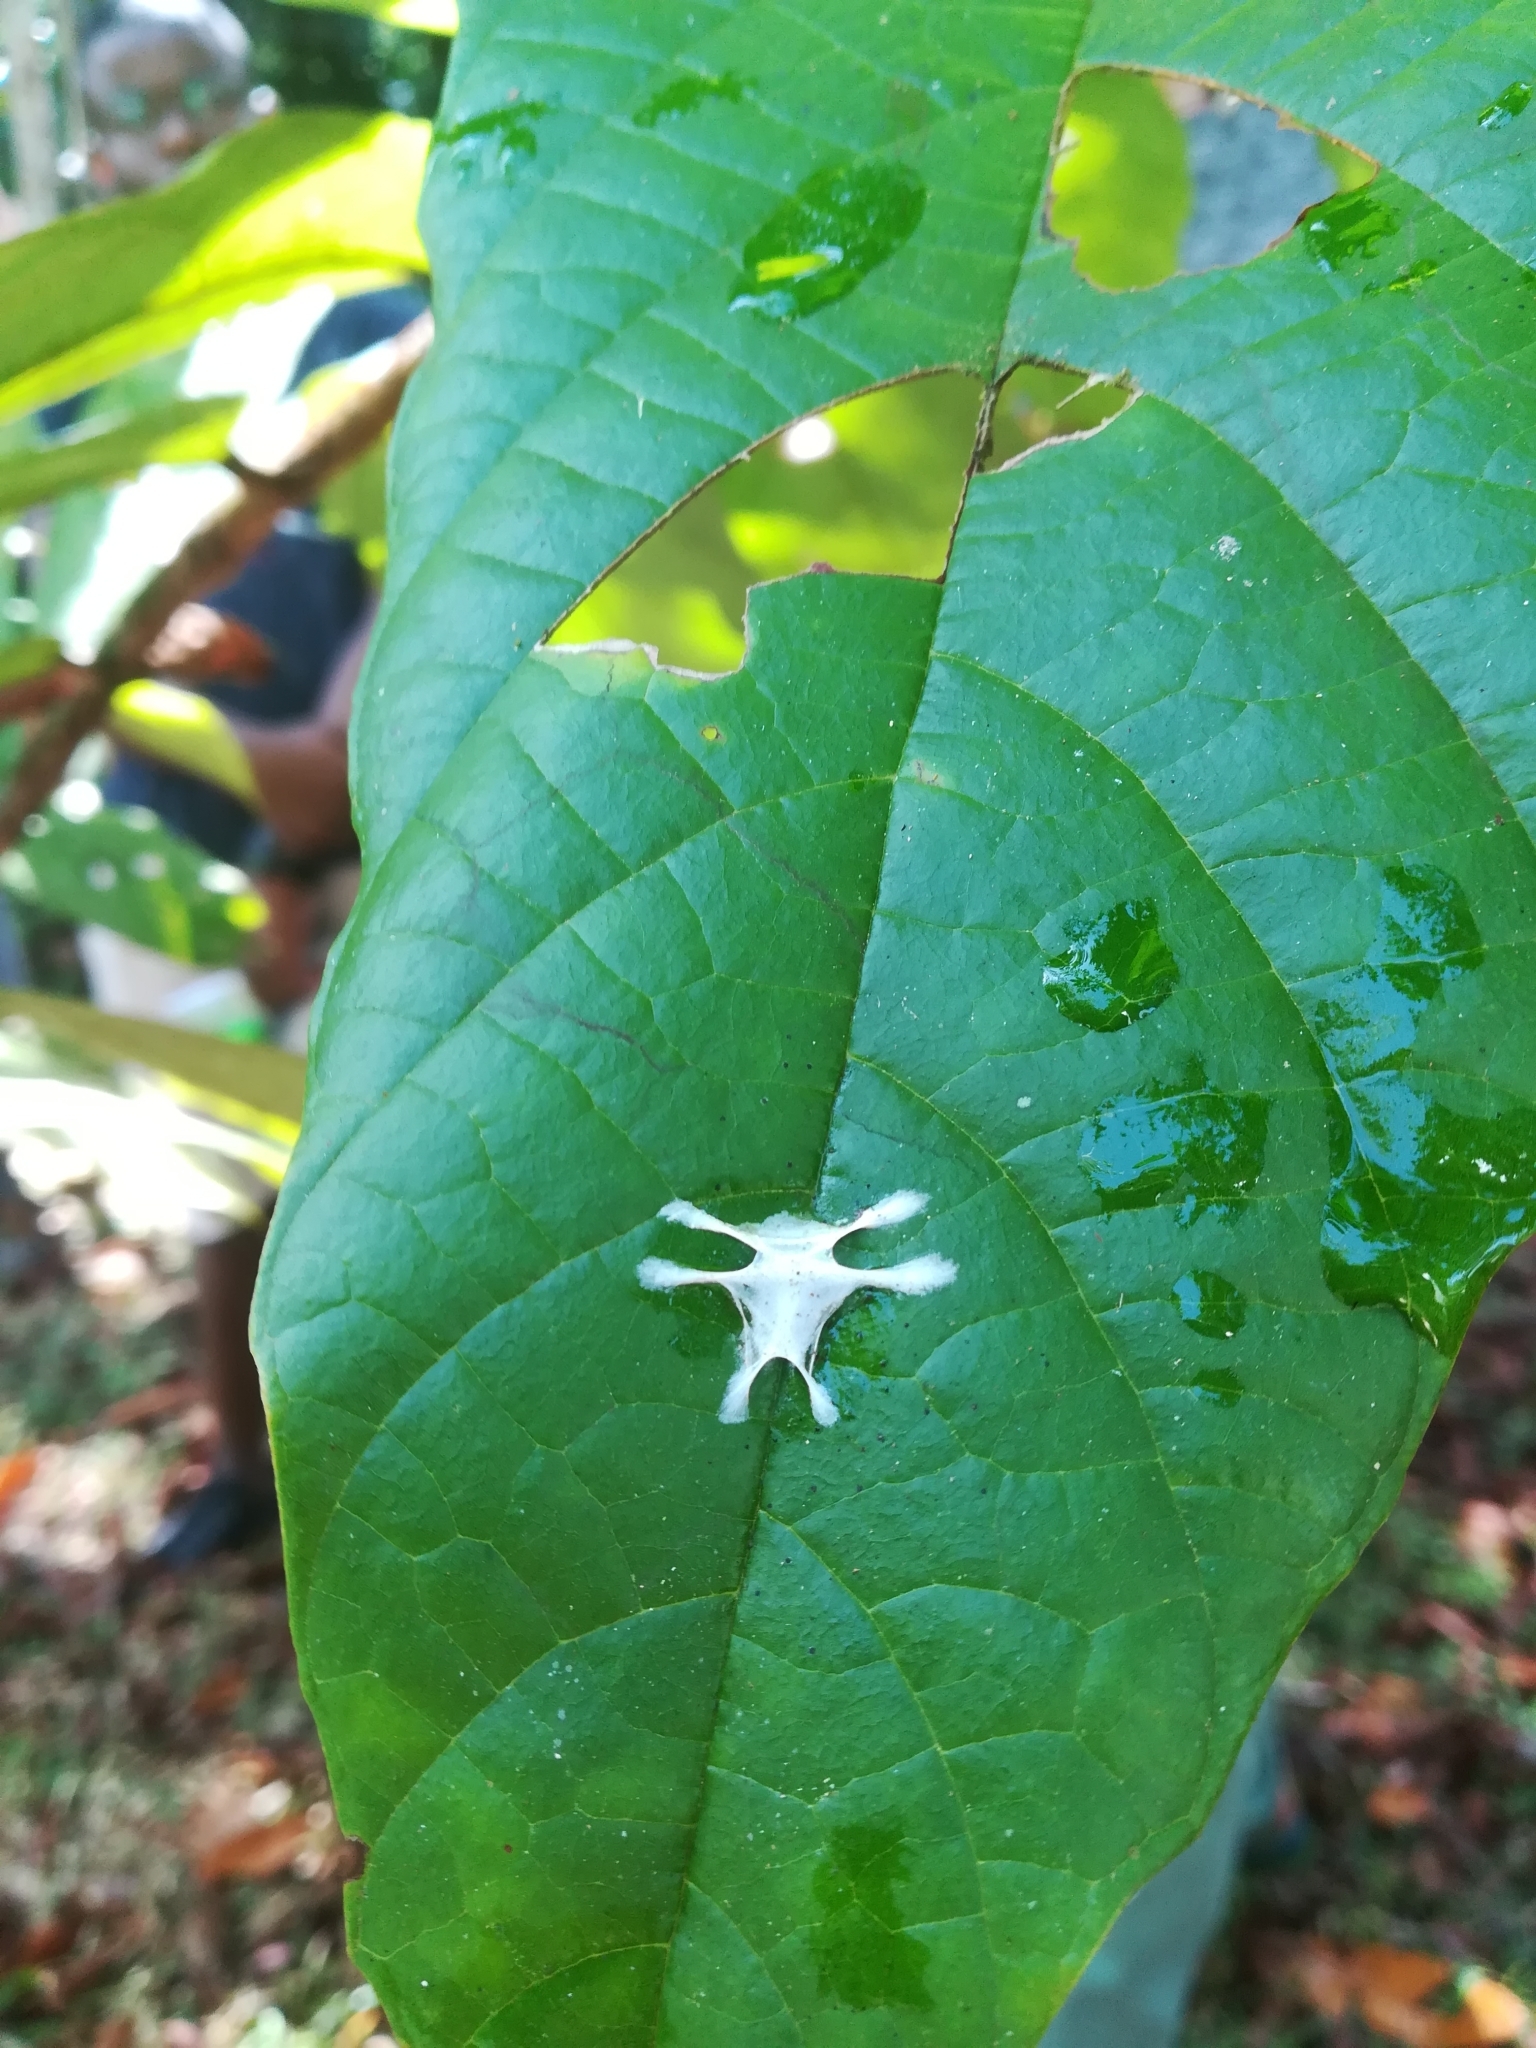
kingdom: Animalia
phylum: Arthropoda
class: Arachnida
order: Araneae
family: Salticidae
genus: Fritzia
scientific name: Fritzia
